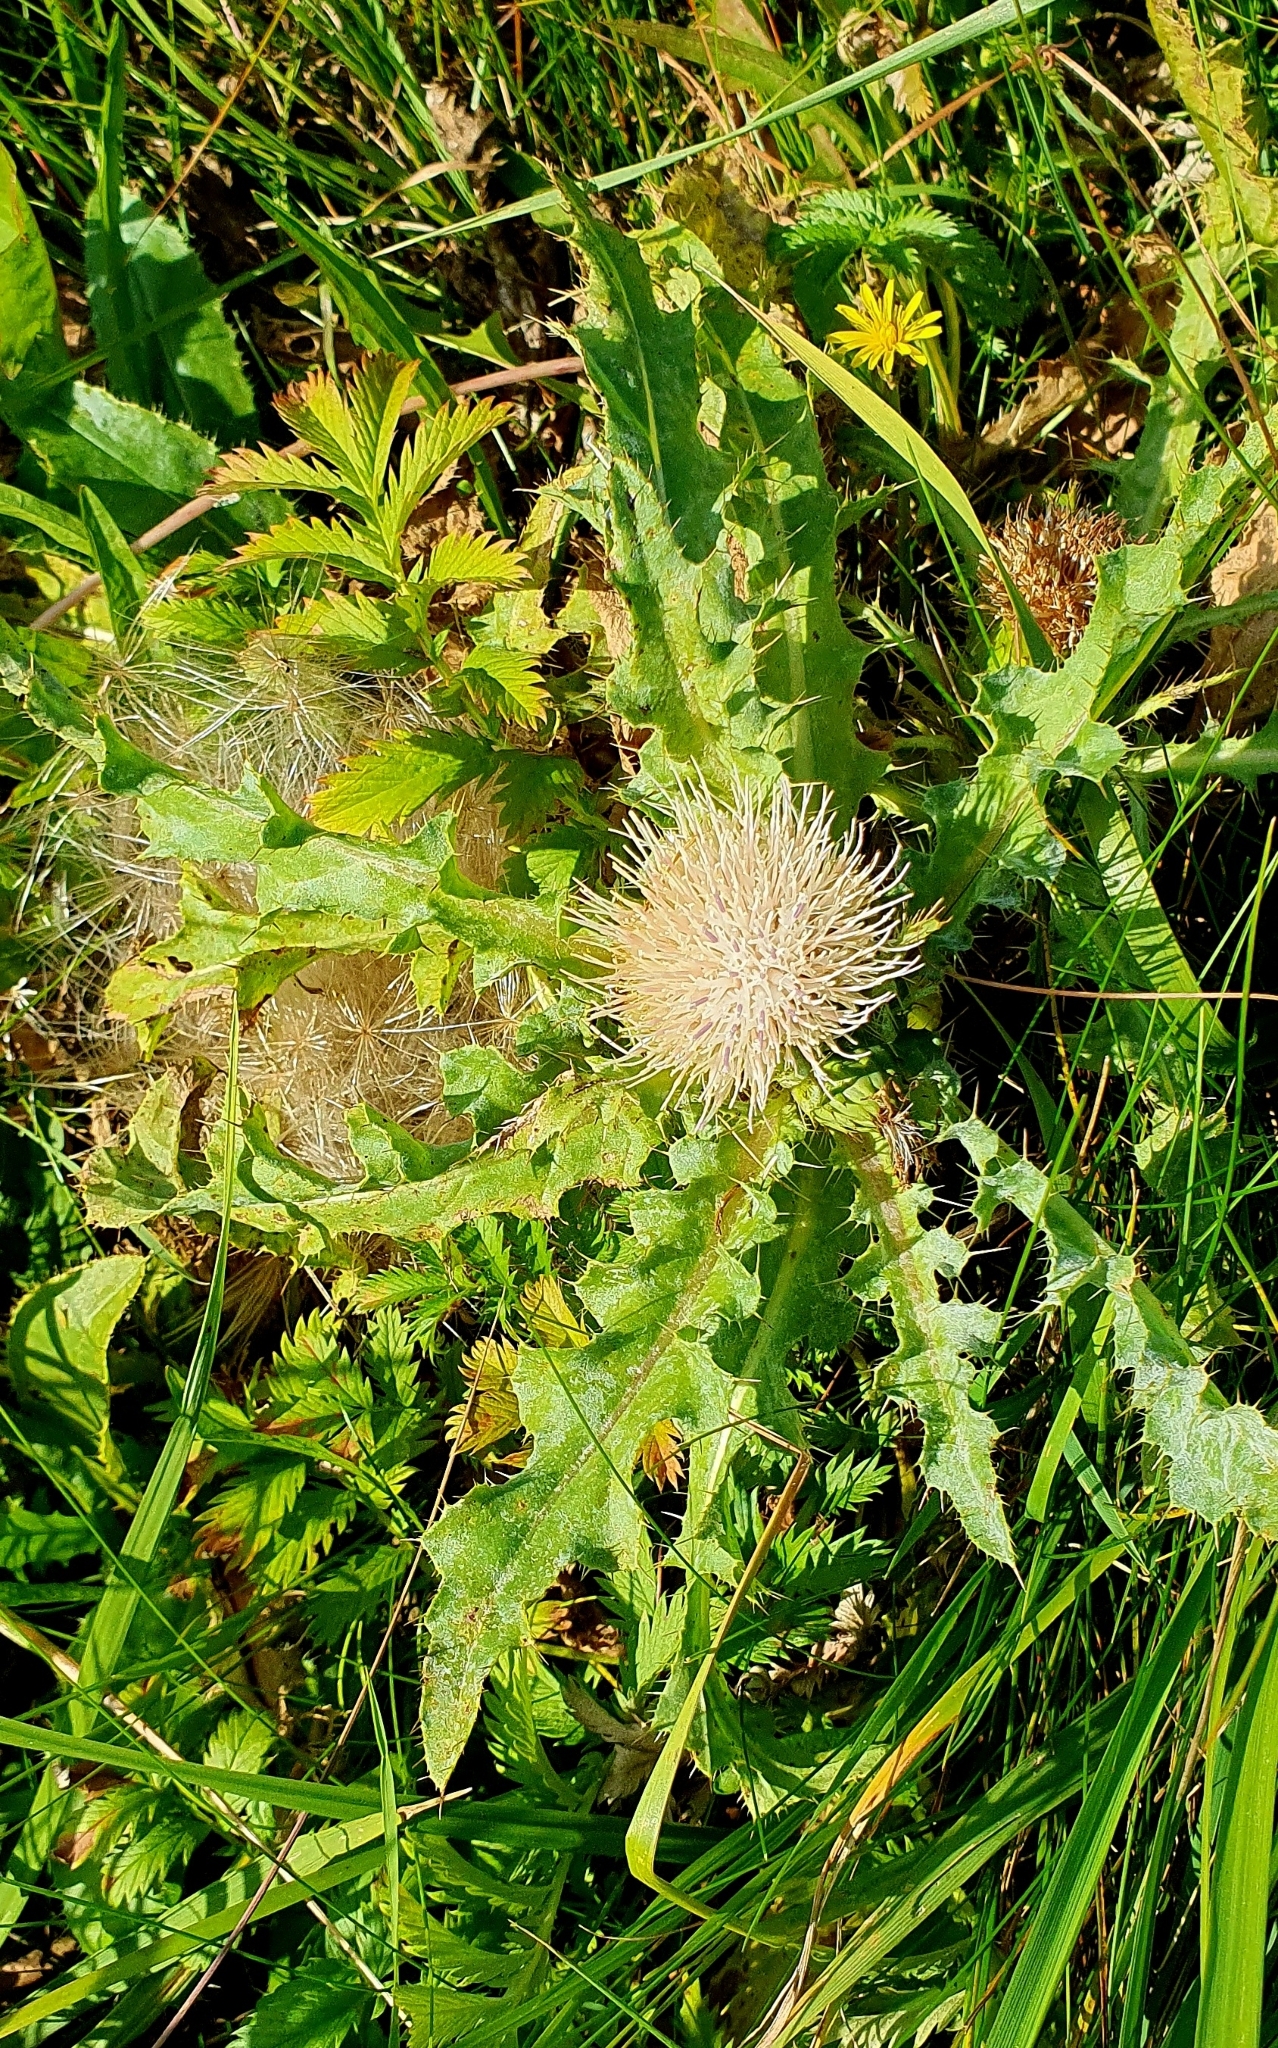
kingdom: Plantae
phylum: Tracheophyta
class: Magnoliopsida
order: Asterales
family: Asteraceae
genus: Cirsium
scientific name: Cirsium esculentum
